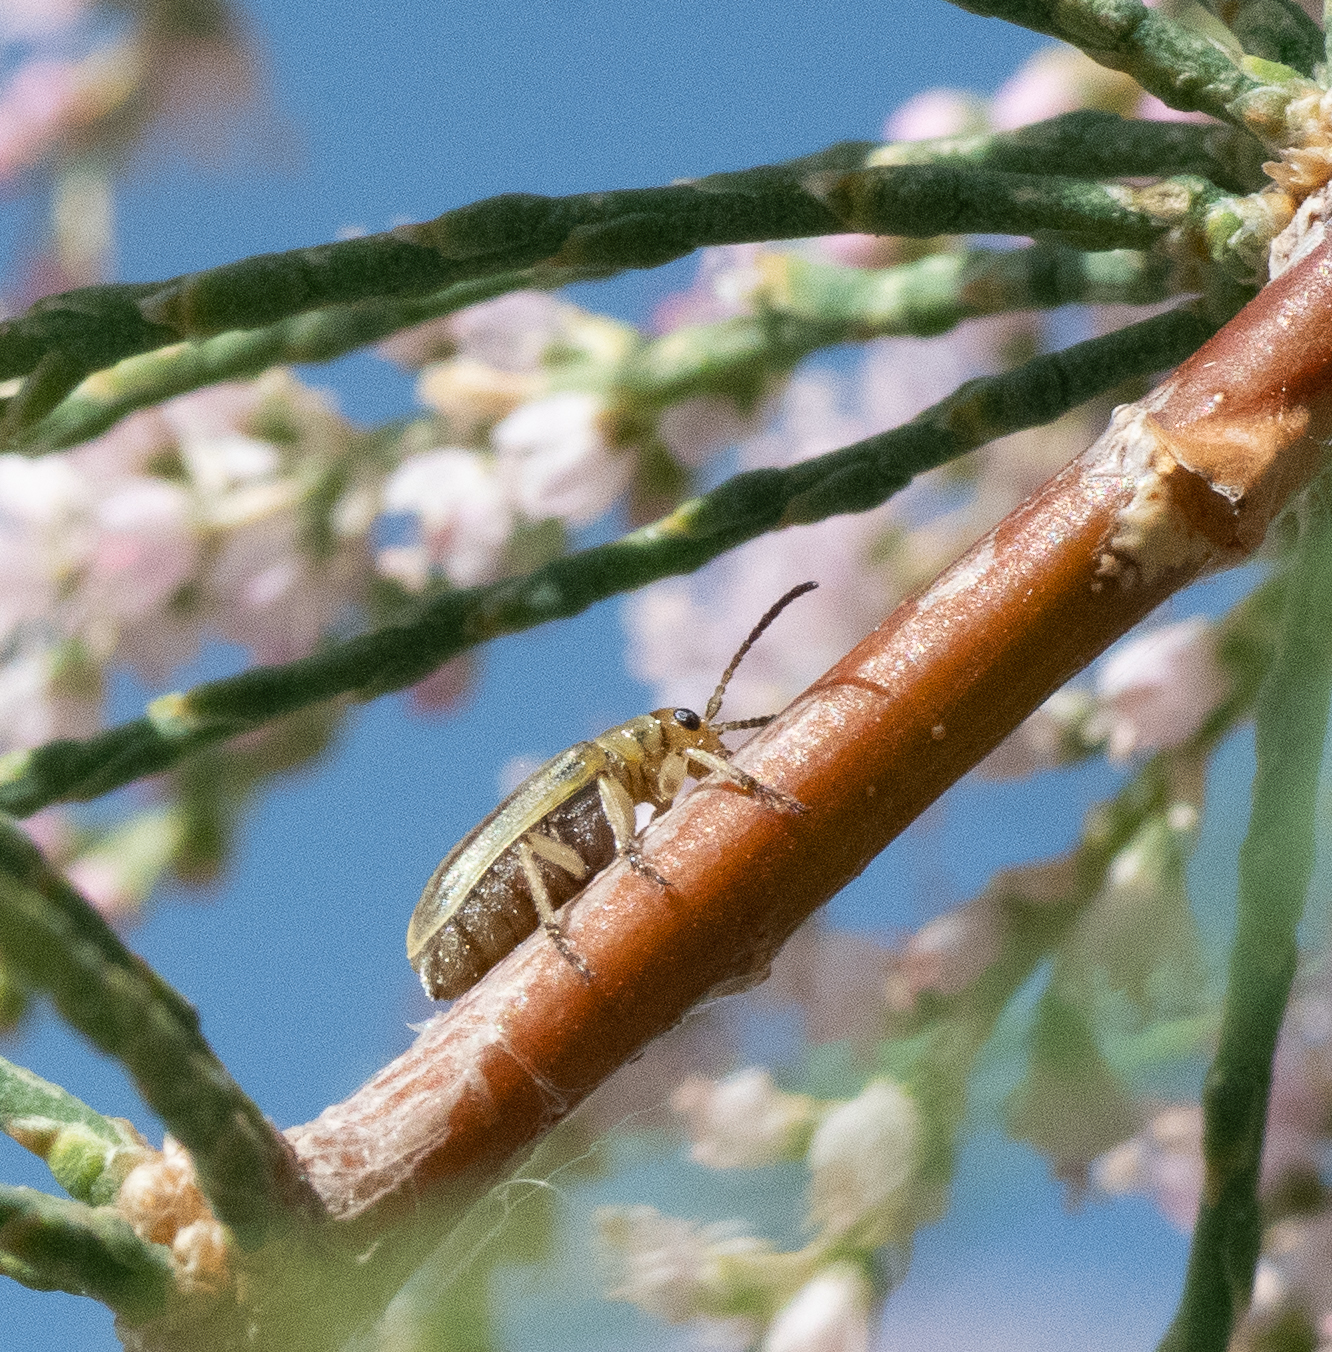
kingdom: Animalia
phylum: Arthropoda
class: Insecta
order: Coleoptera
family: Chrysomelidae
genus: Diorhabda
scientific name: Diorhabda carinulata
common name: Tamarisk leaf beetle
